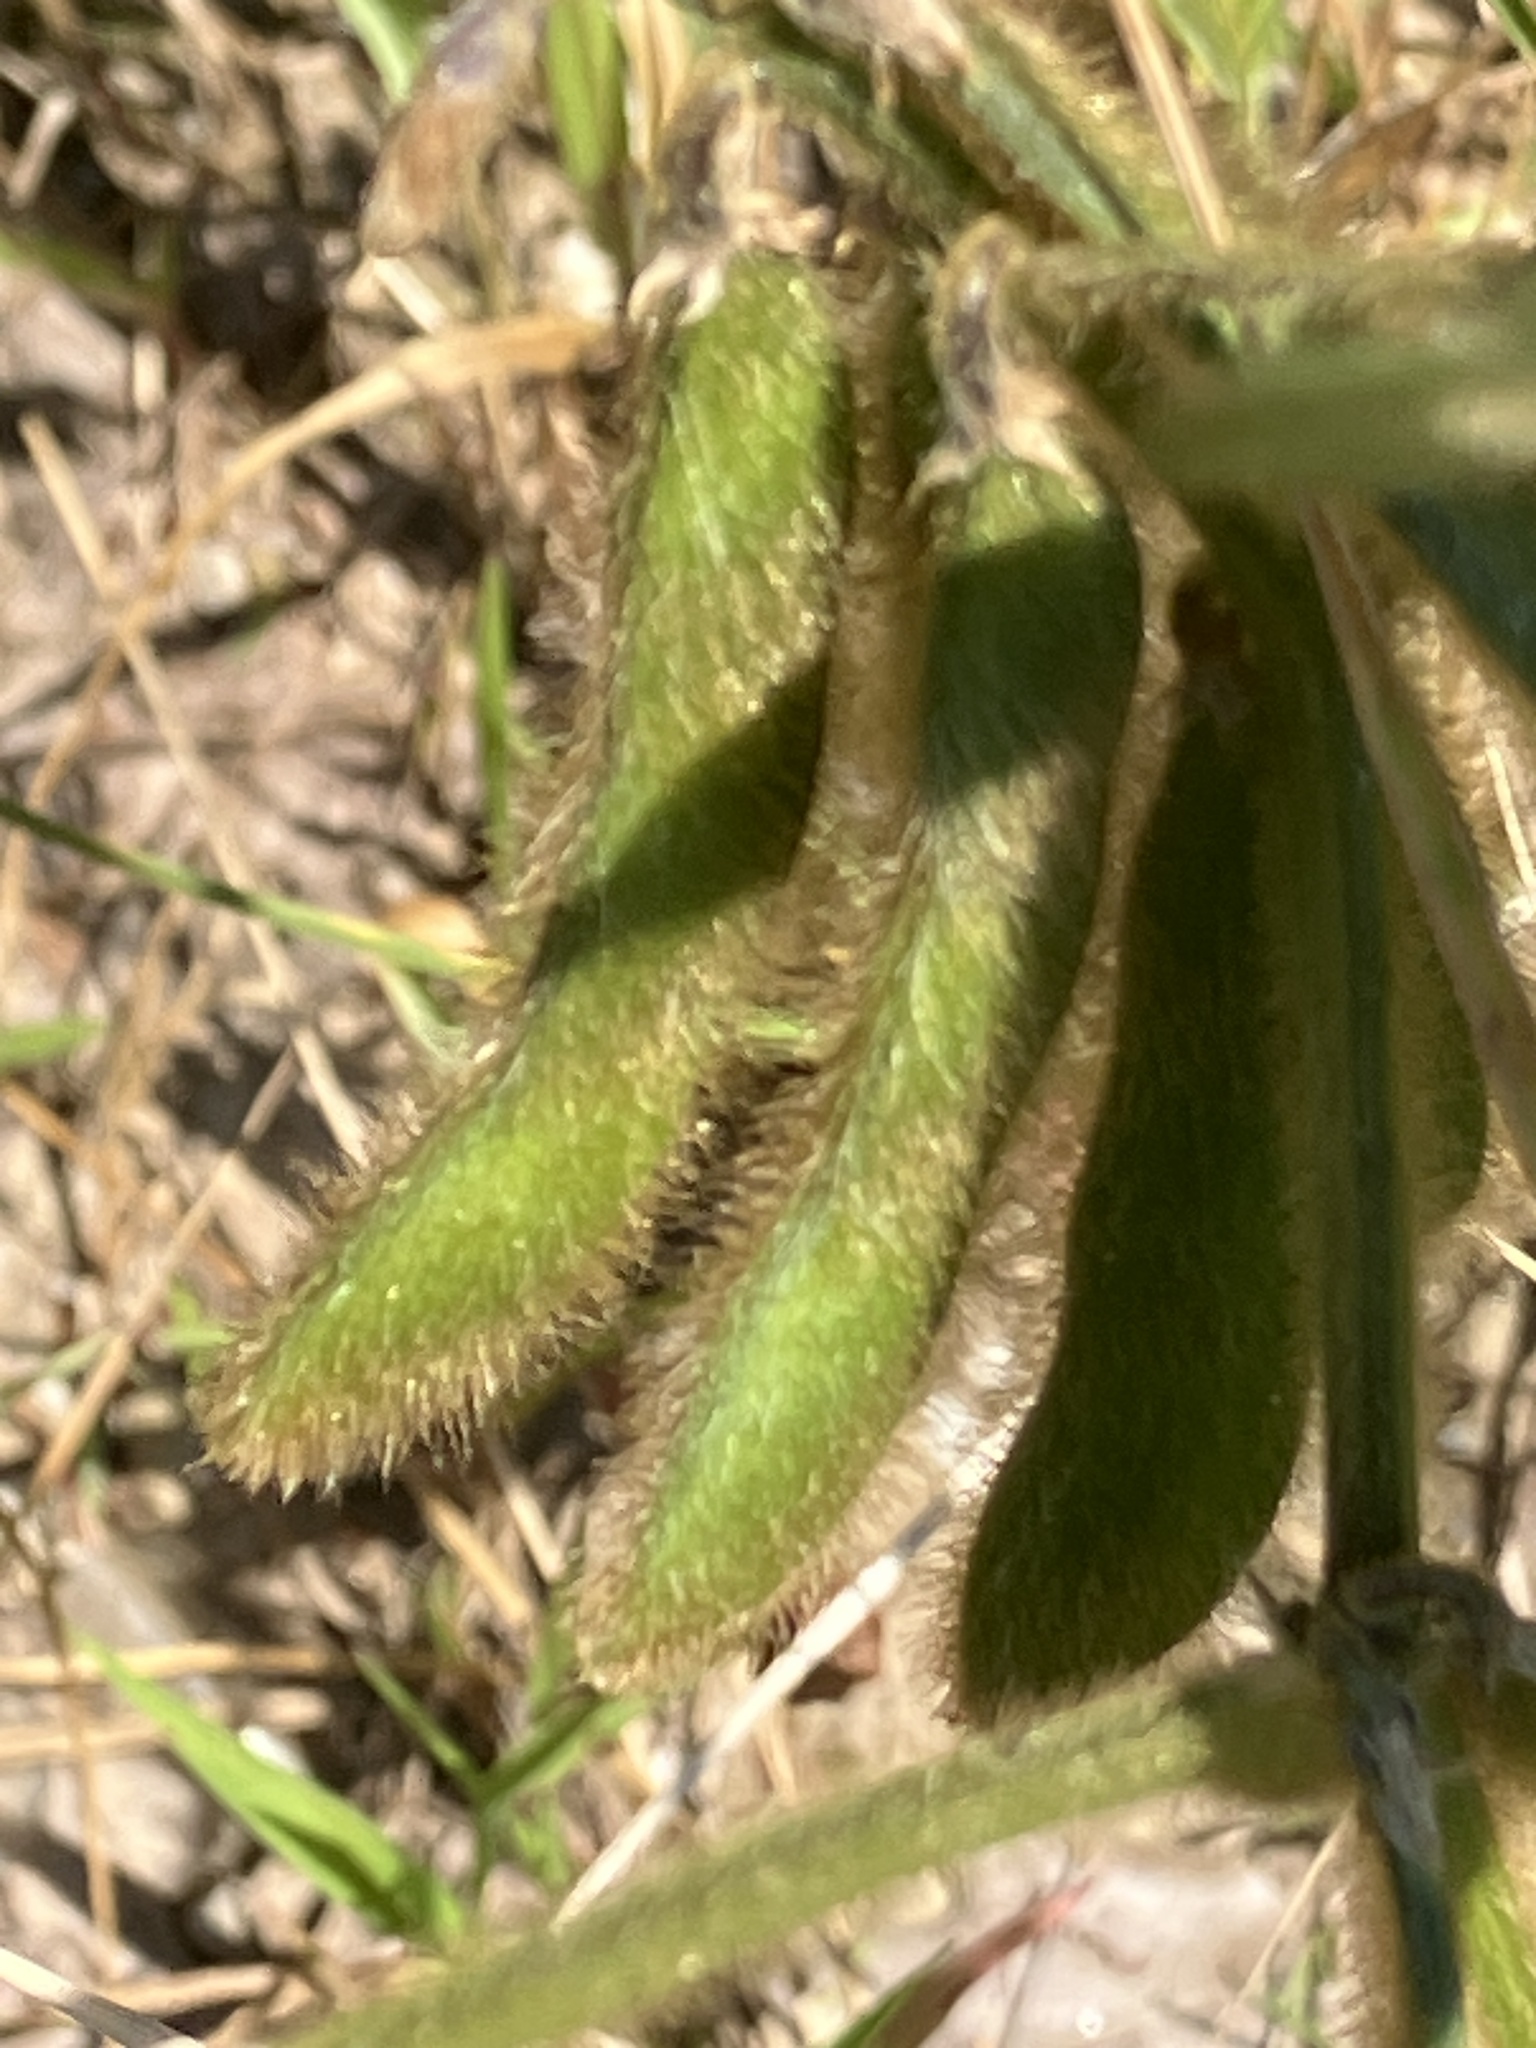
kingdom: Plantae
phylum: Tracheophyta
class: Magnoliopsida
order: Fabales
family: Fabaceae
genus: Glycine
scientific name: Glycine max
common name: Soya-bean
